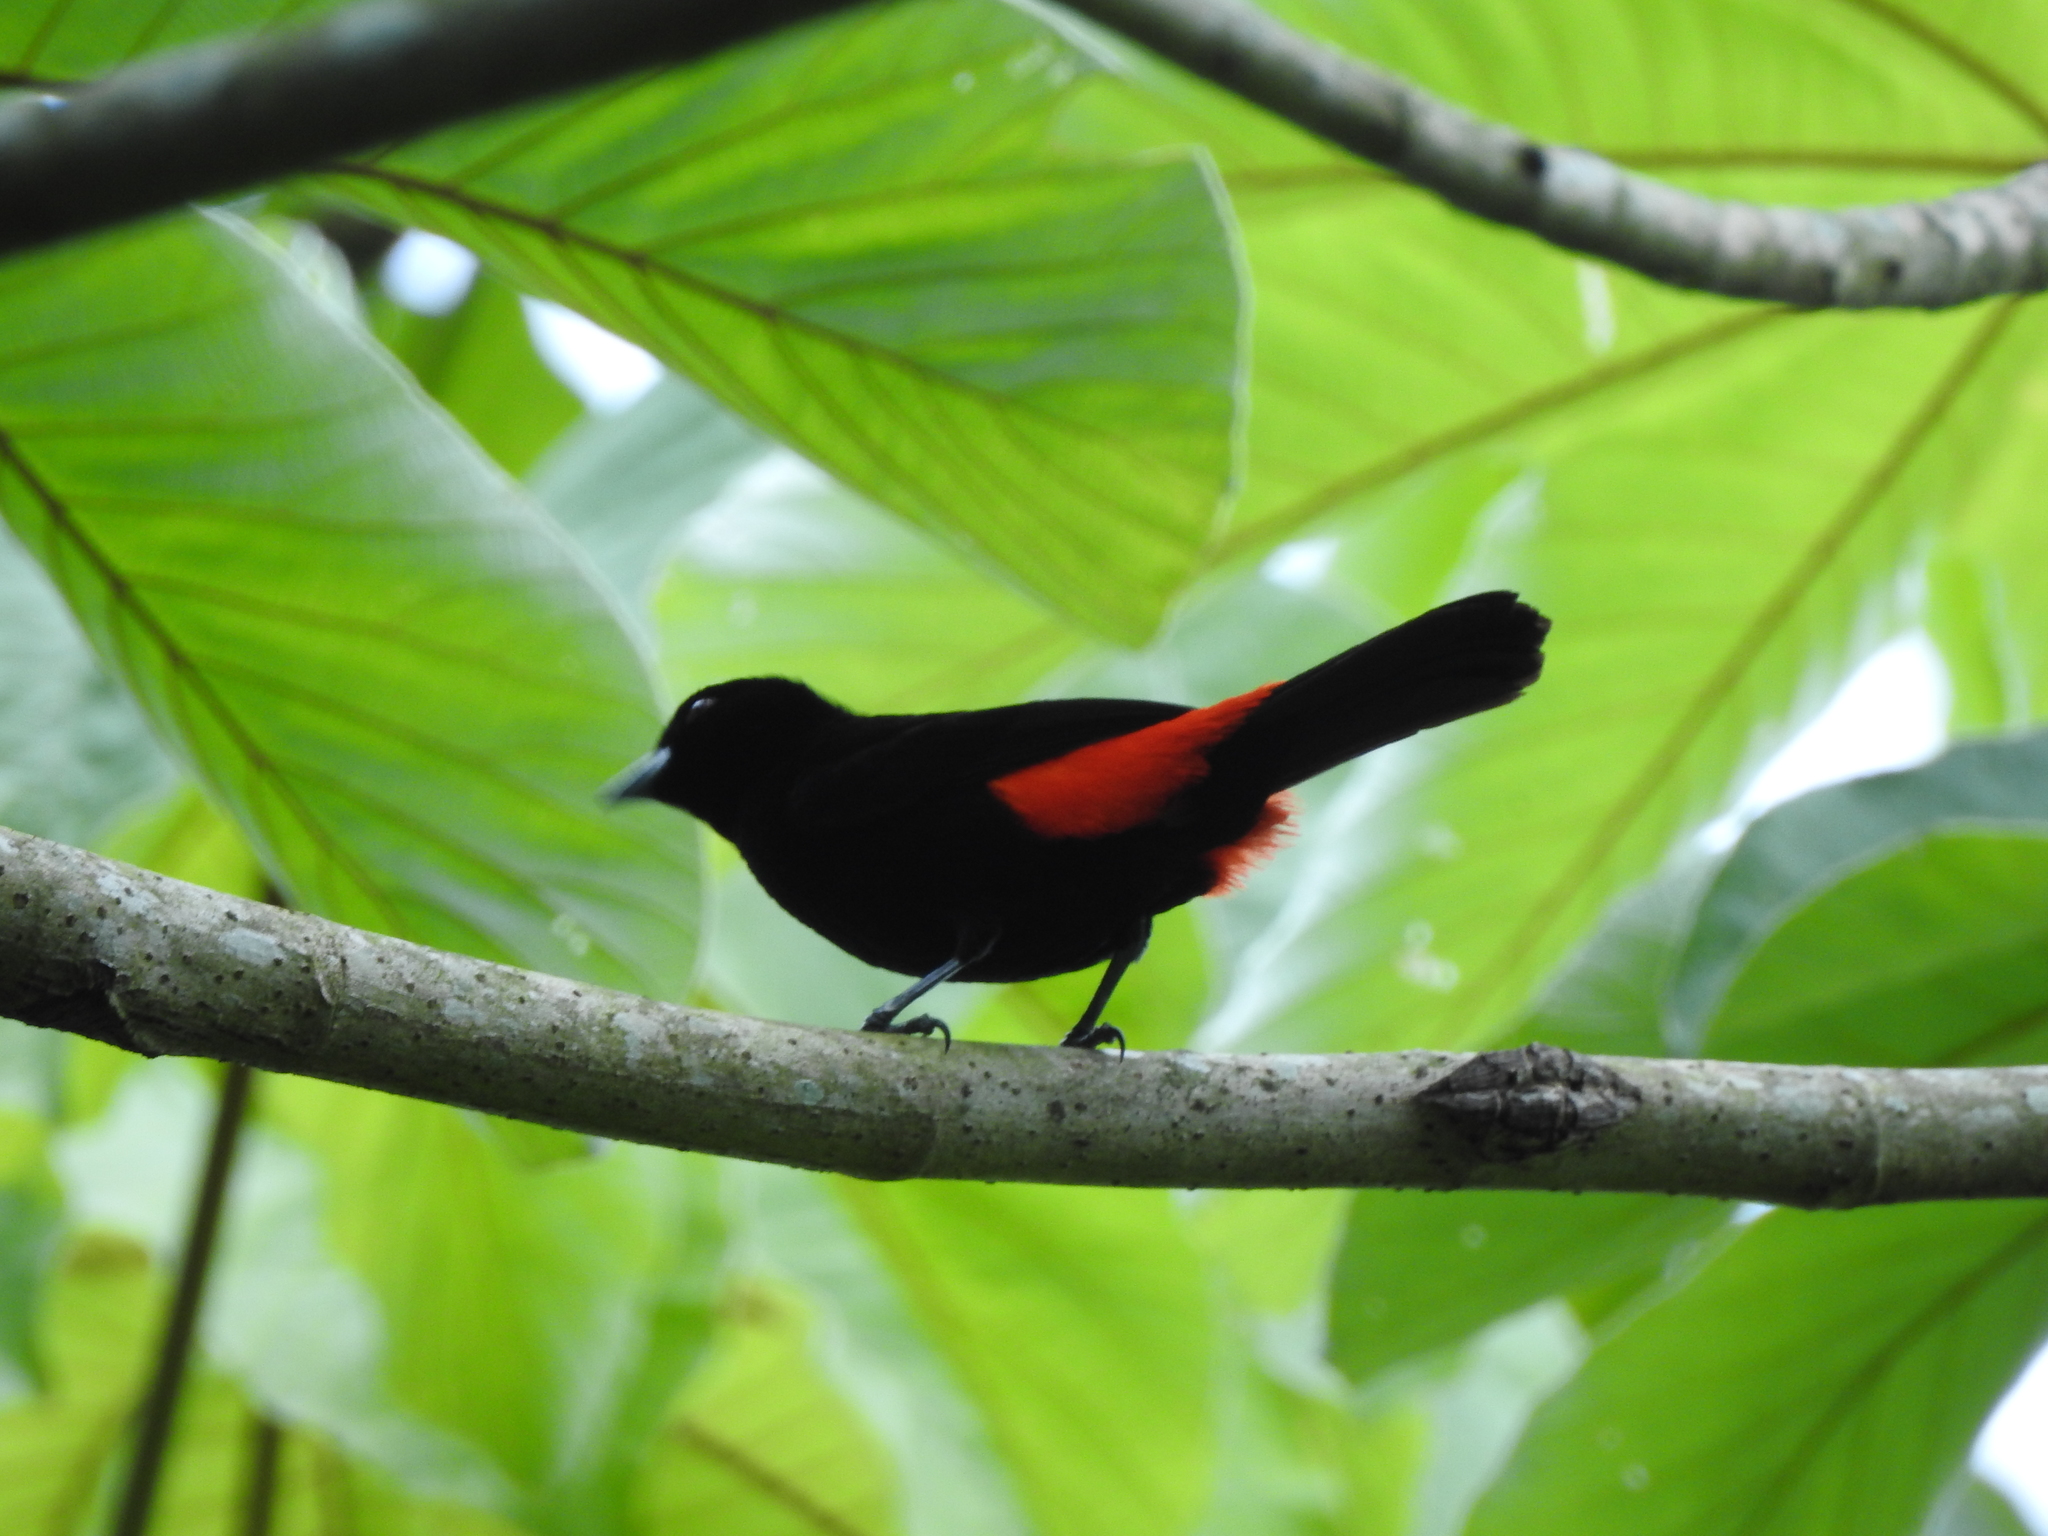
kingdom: Animalia
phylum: Chordata
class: Aves
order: Passeriformes
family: Thraupidae
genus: Ramphocelus
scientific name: Ramphocelus passerinii
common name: Passerini's tanager
